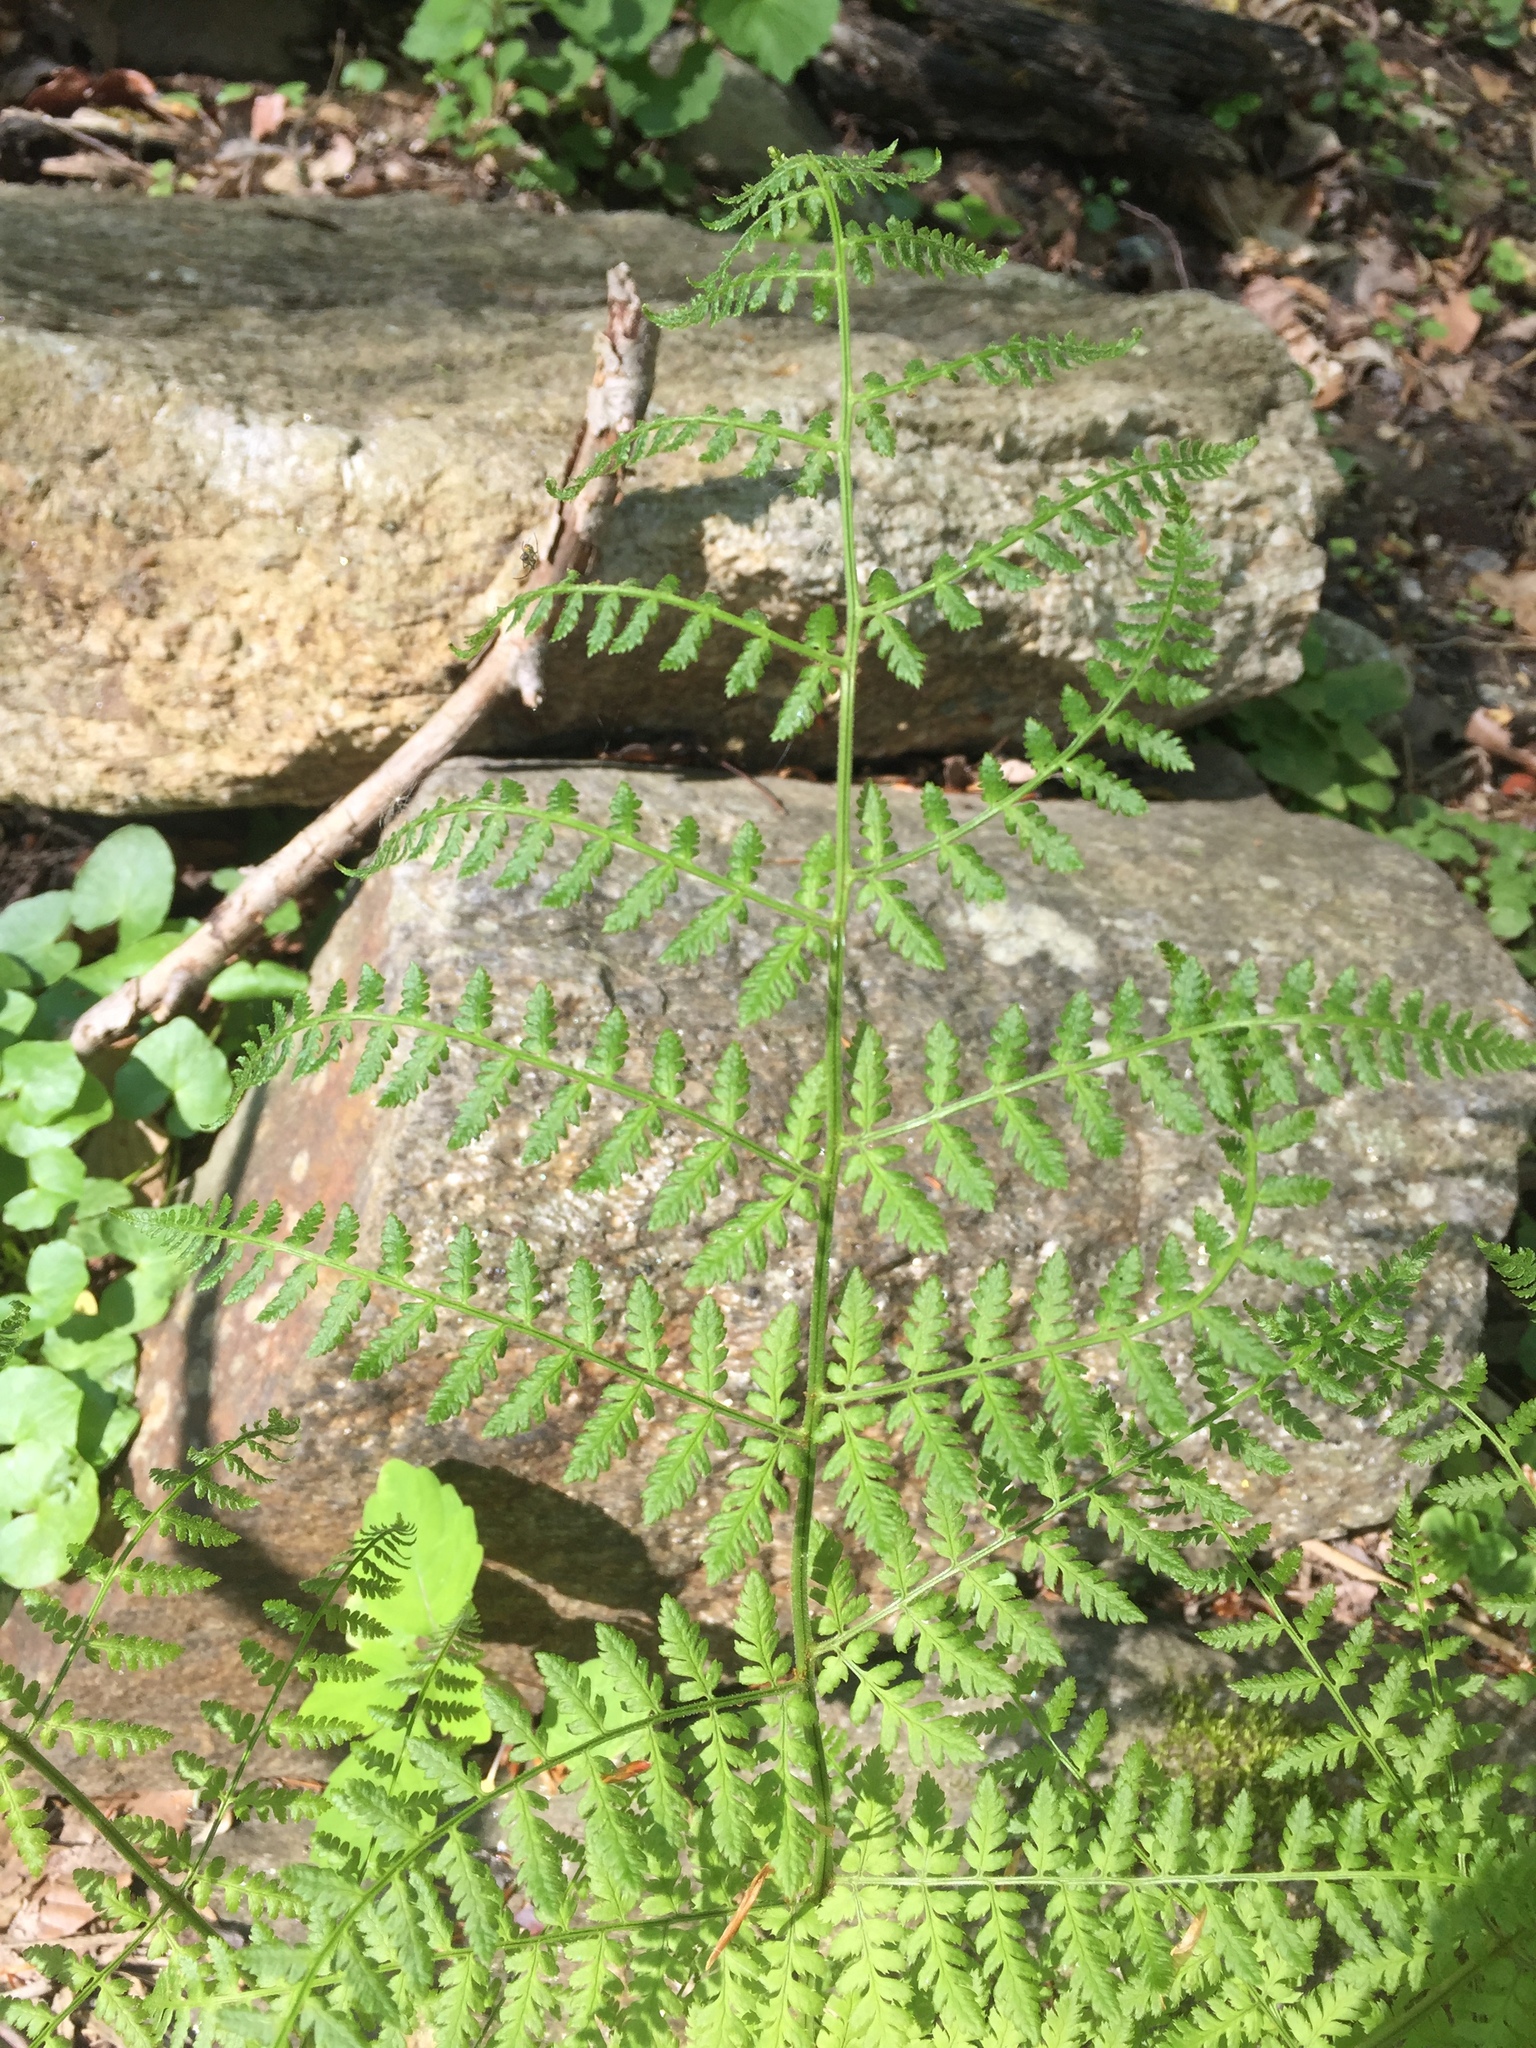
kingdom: Plantae
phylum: Tracheophyta
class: Polypodiopsida
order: Polypodiales
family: Dryopteridaceae
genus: Dryopteris
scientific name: Dryopteris intermedia
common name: Evergreen wood fern
